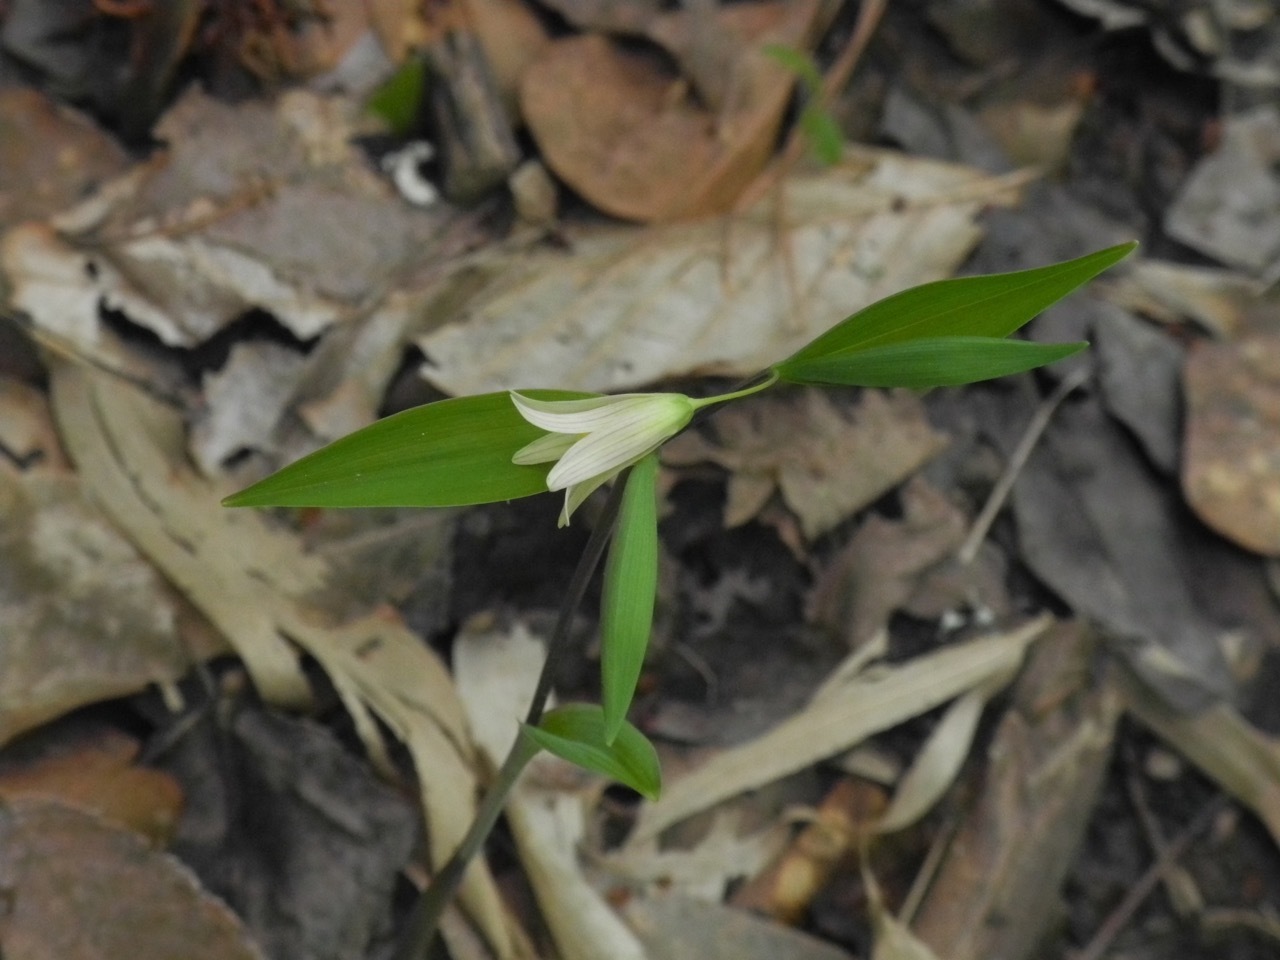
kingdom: Plantae
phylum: Tracheophyta
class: Liliopsida
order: Liliales
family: Colchicaceae
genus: Uvularia
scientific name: Uvularia sessilifolia
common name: Straw-lily
